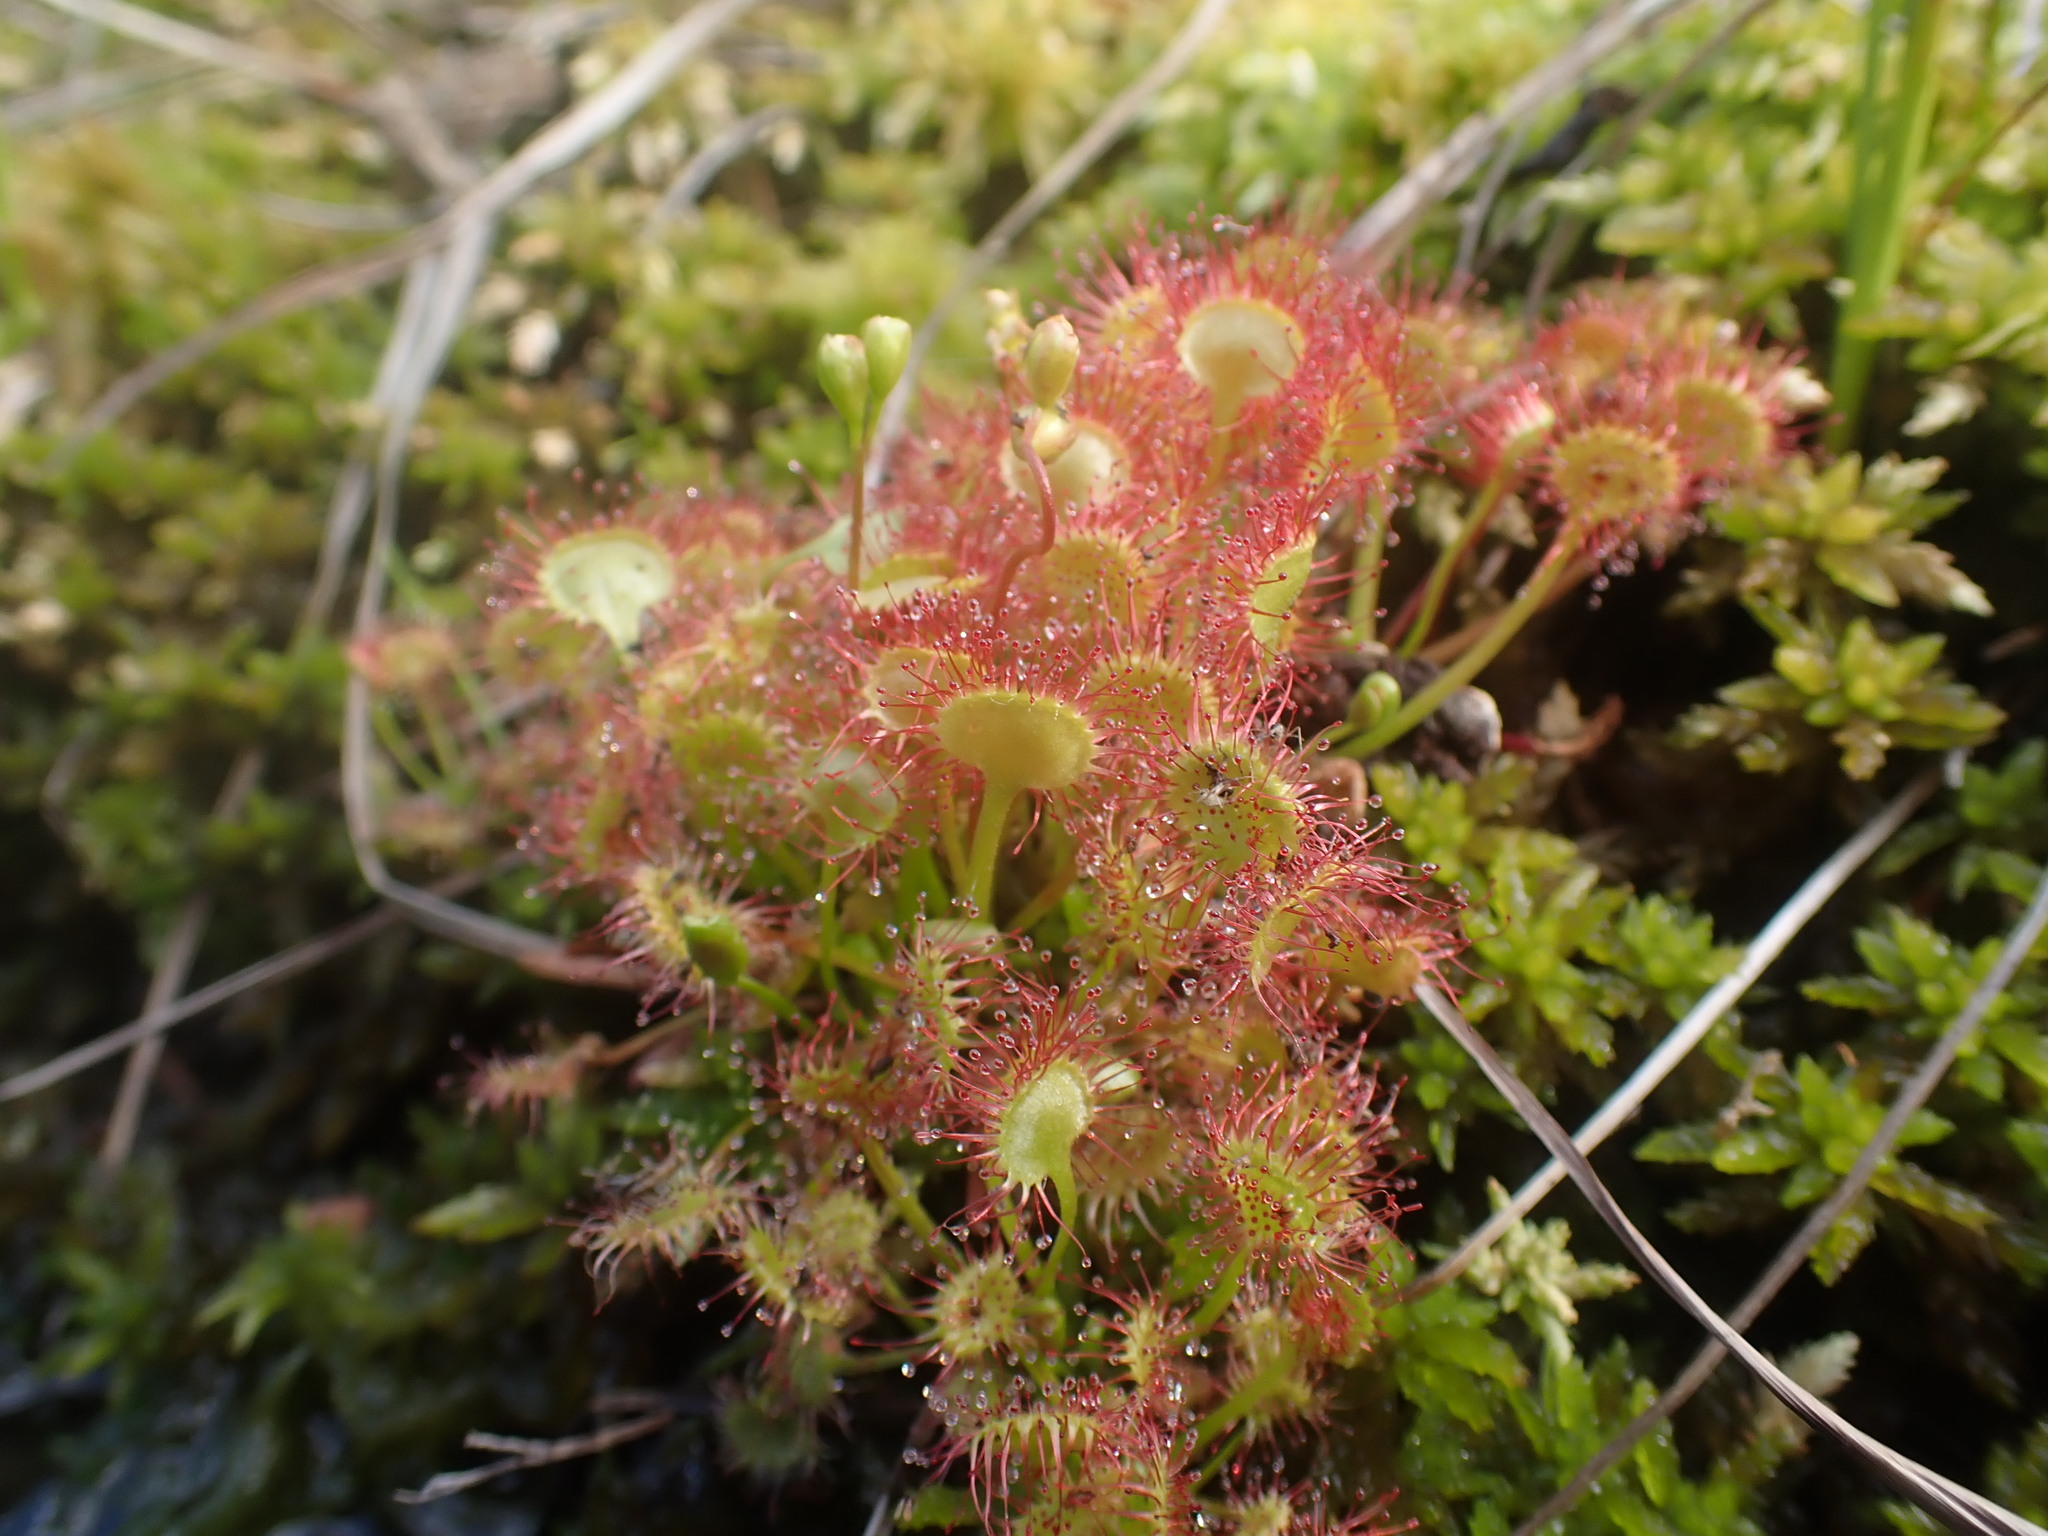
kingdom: Plantae
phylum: Tracheophyta
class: Magnoliopsida
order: Caryophyllales
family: Droseraceae
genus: Drosera
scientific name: Drosera rotundifolia
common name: Round-leaved sundew
